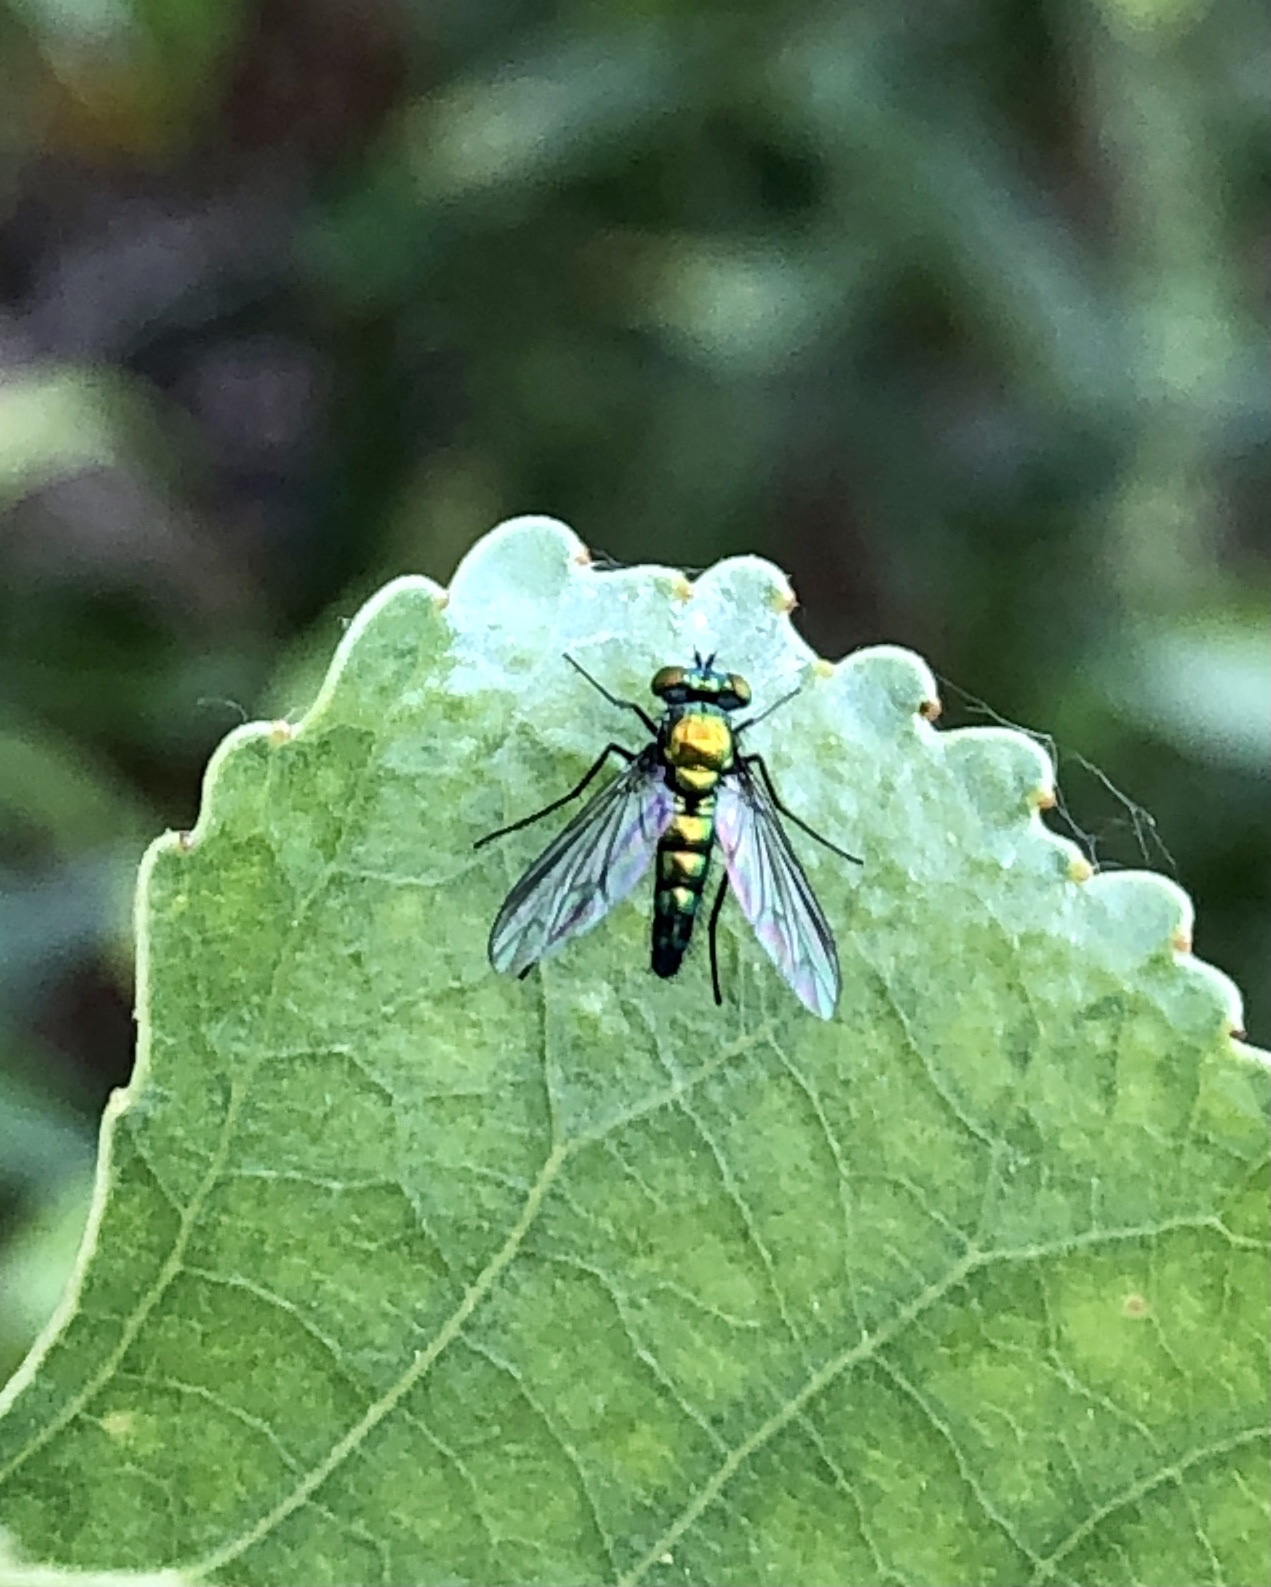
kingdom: Animalia
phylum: Arthropoda
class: Insecta
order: Diptera
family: Dolichopodidae
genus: Condylostylus
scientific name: Condylostylus longicornis
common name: Long-legged fly
